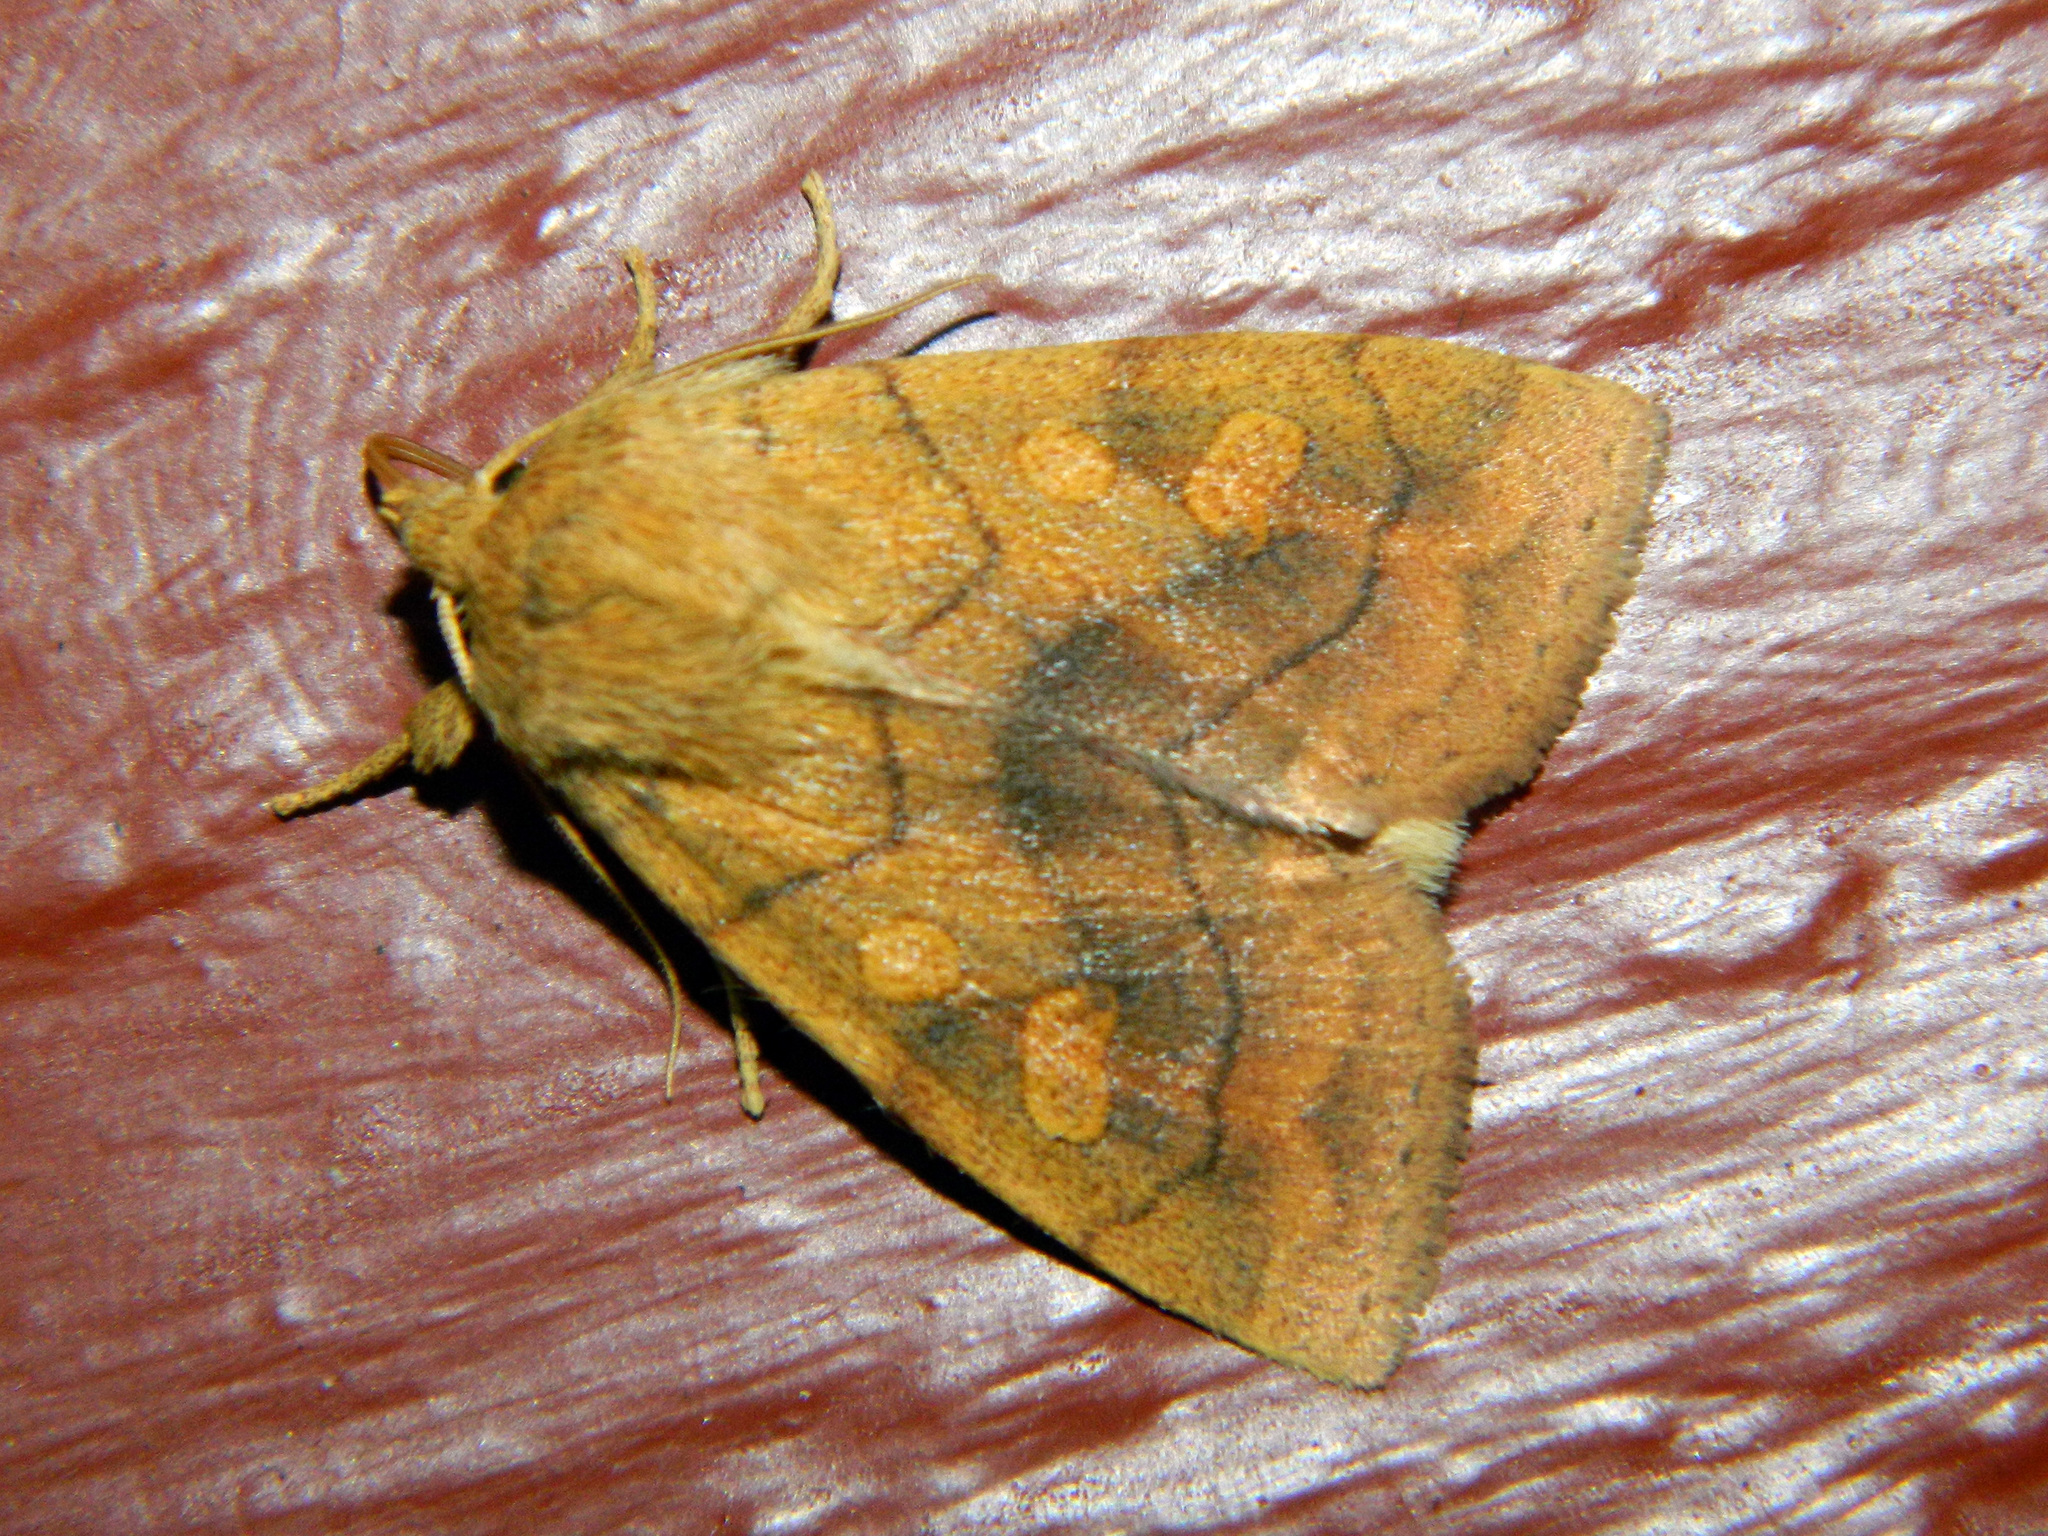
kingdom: Animalia
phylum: Arthropoda
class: Insecta
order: Lepidoptera
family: Noctuidae
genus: Enargia
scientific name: Enargia decolor
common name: Aspen twoleaf tier moth
